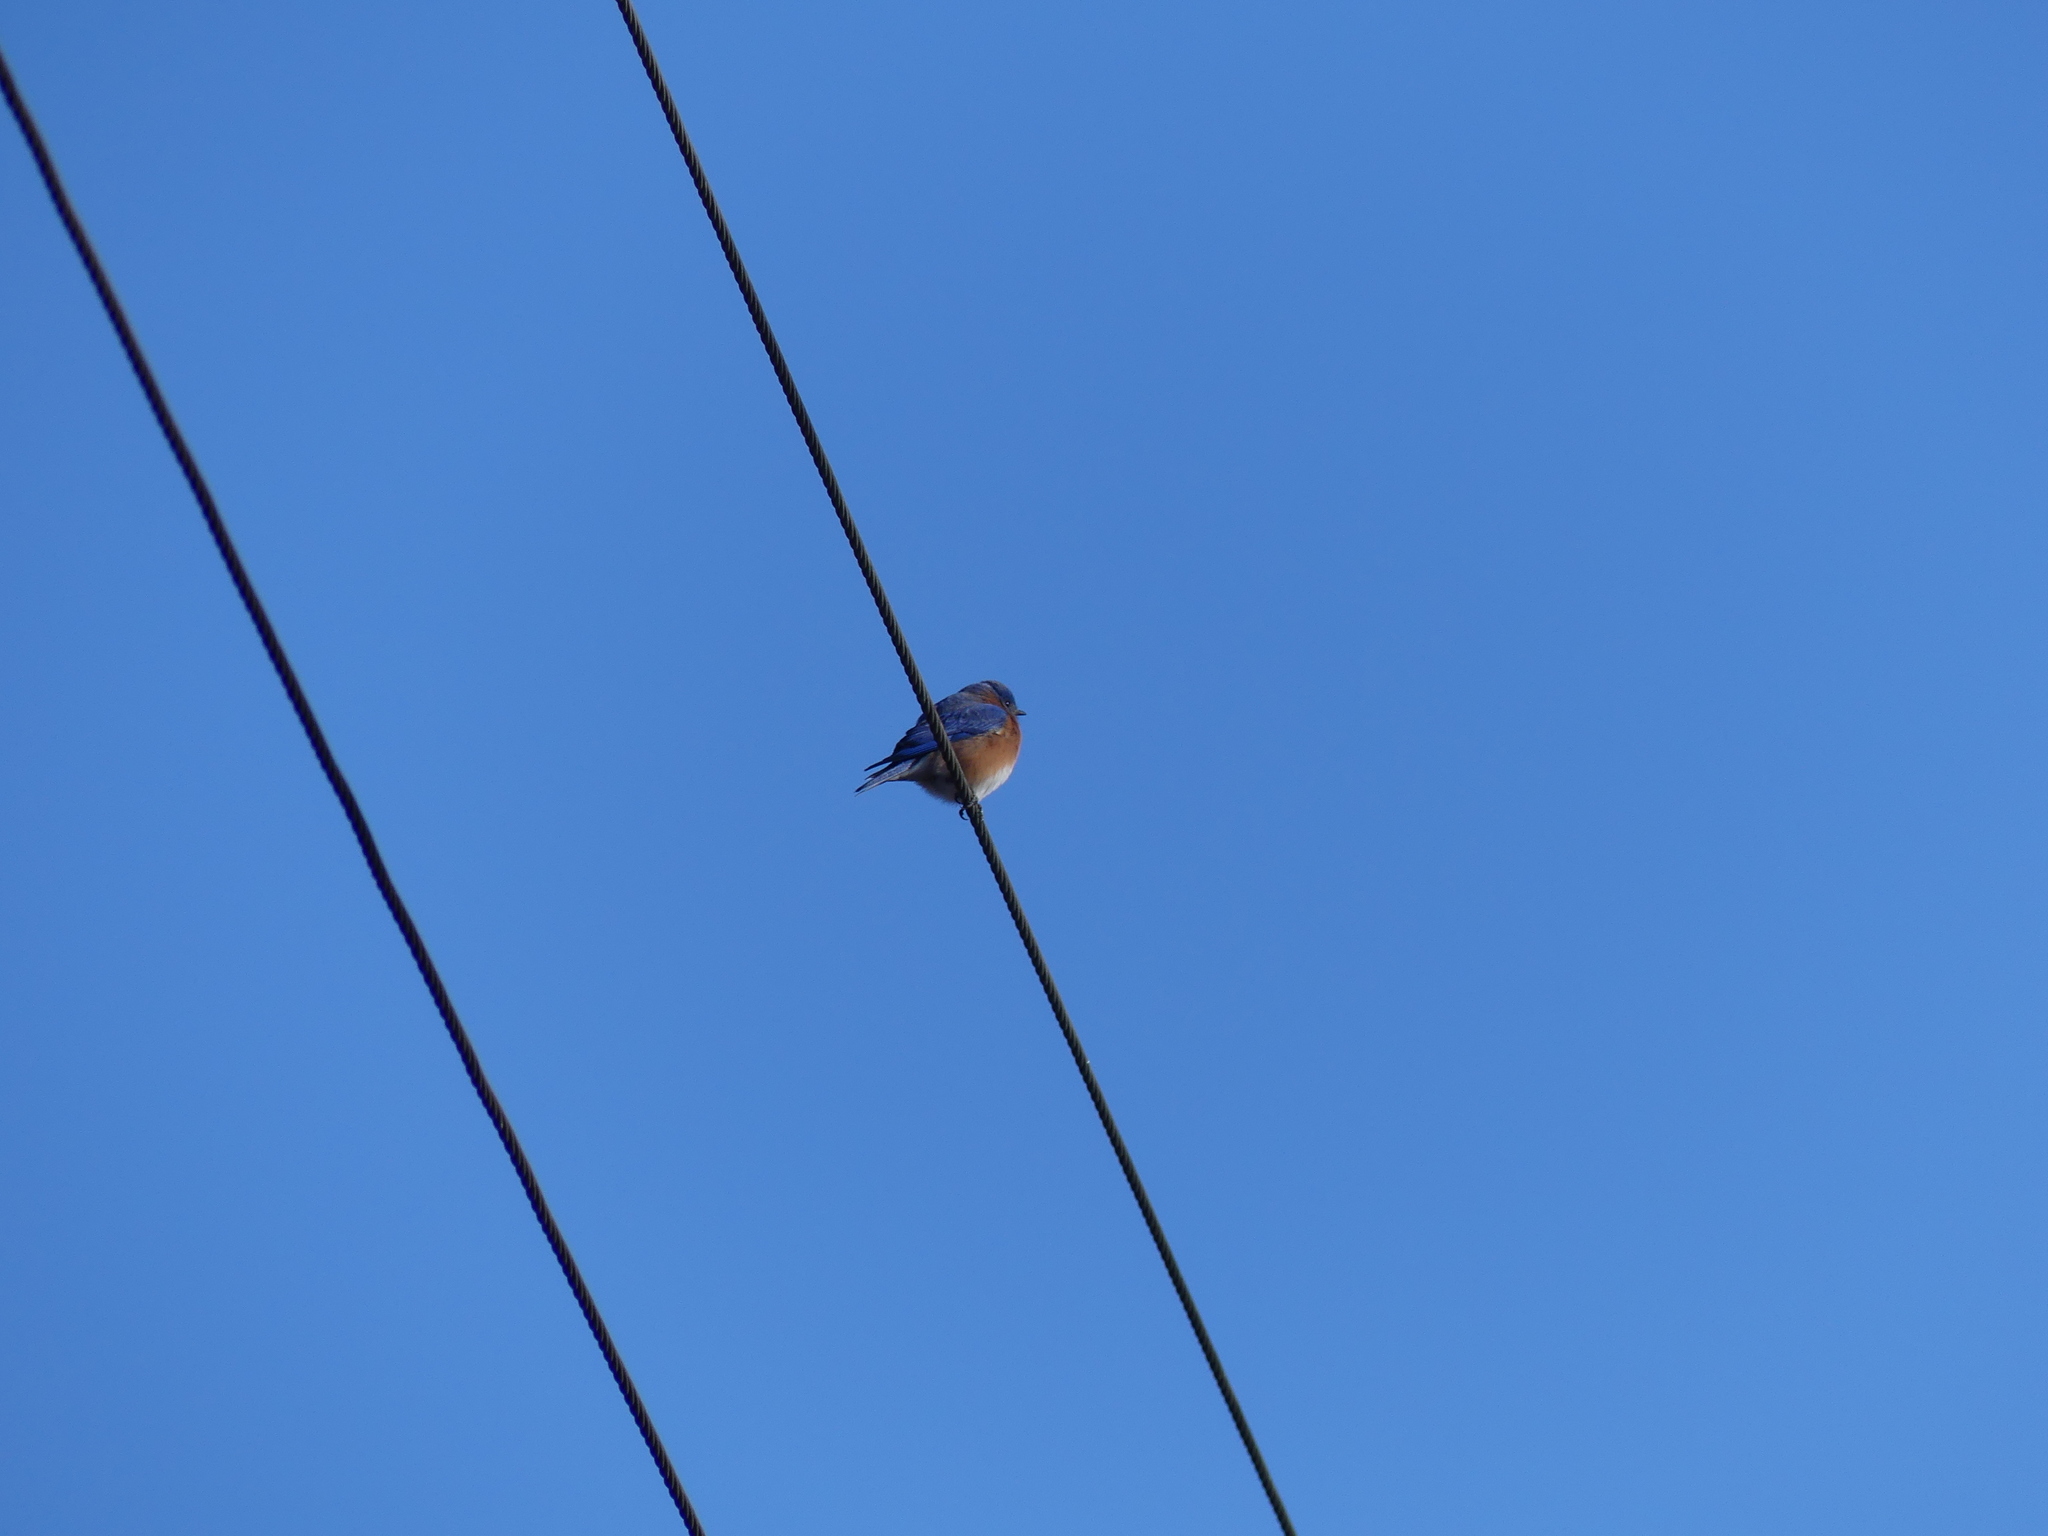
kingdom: Animalia
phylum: Chordata
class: Aves
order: Passeriformes
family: Turdidae
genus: Sialia
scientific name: Sialia sialis
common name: Eastern bluebird
